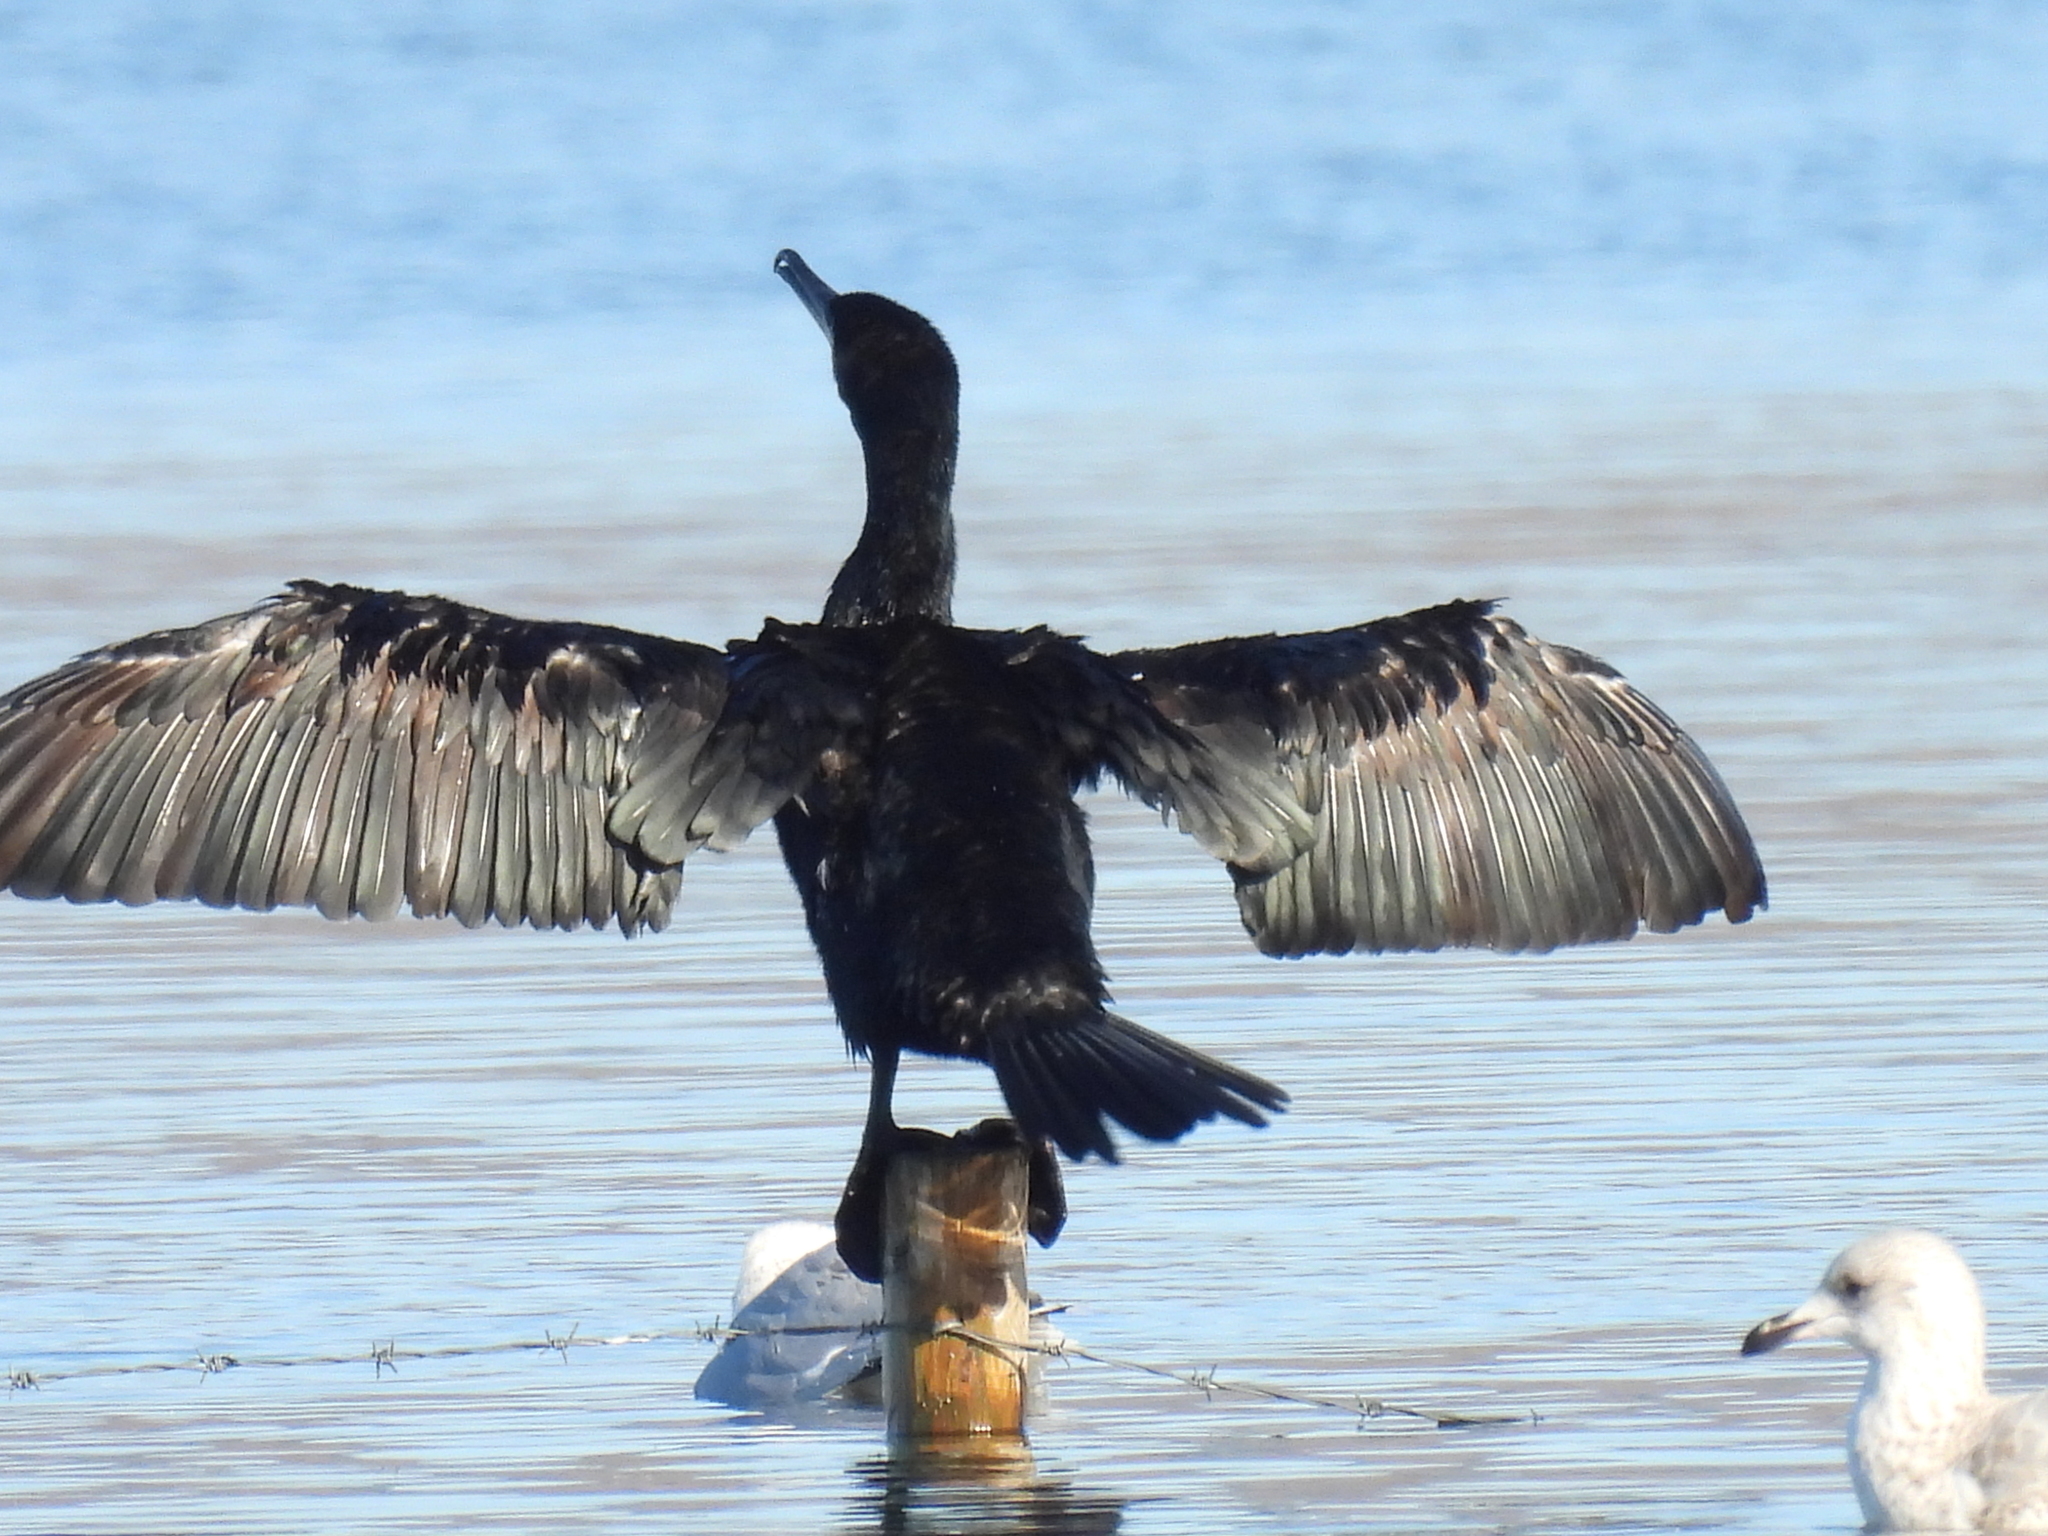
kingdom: Animalia
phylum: Chordata
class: Aves
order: Suliformes
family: Phalacrocoracidae
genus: Phalacrocorax
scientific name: Phalacrocorax carbo
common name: Great cormorant
